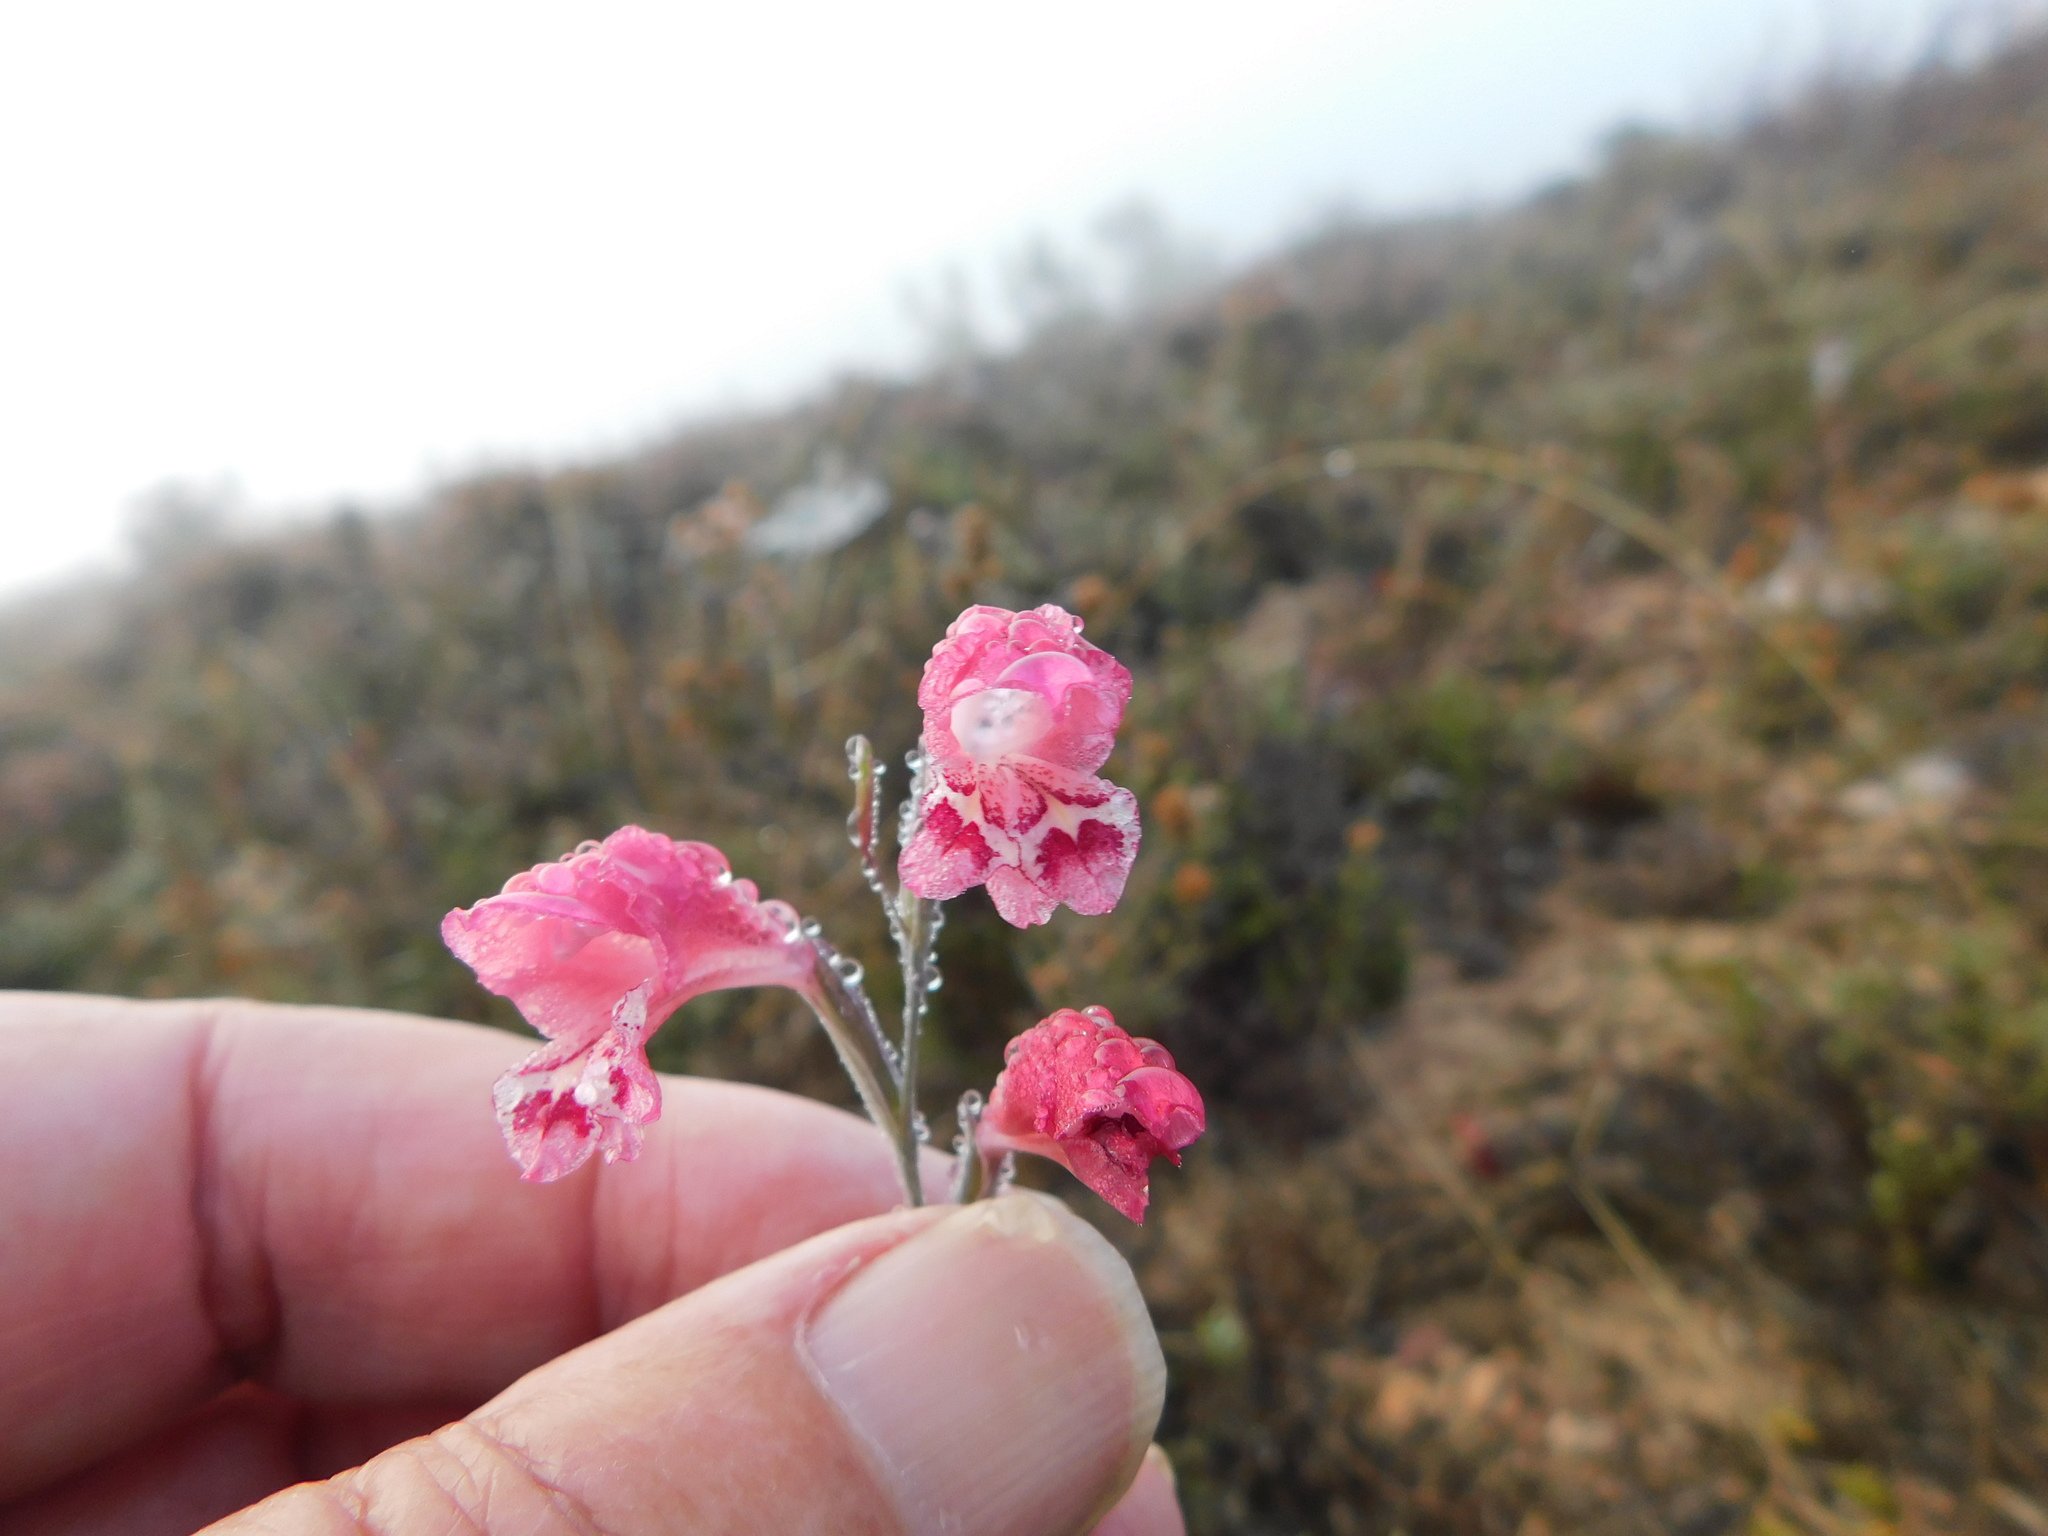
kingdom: Plantae
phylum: Tracheophyta
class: Liliopsida
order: Asparagales
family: Iridaceae
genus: Gladiolus
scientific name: Gladiolus brevifolius
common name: March pypie
